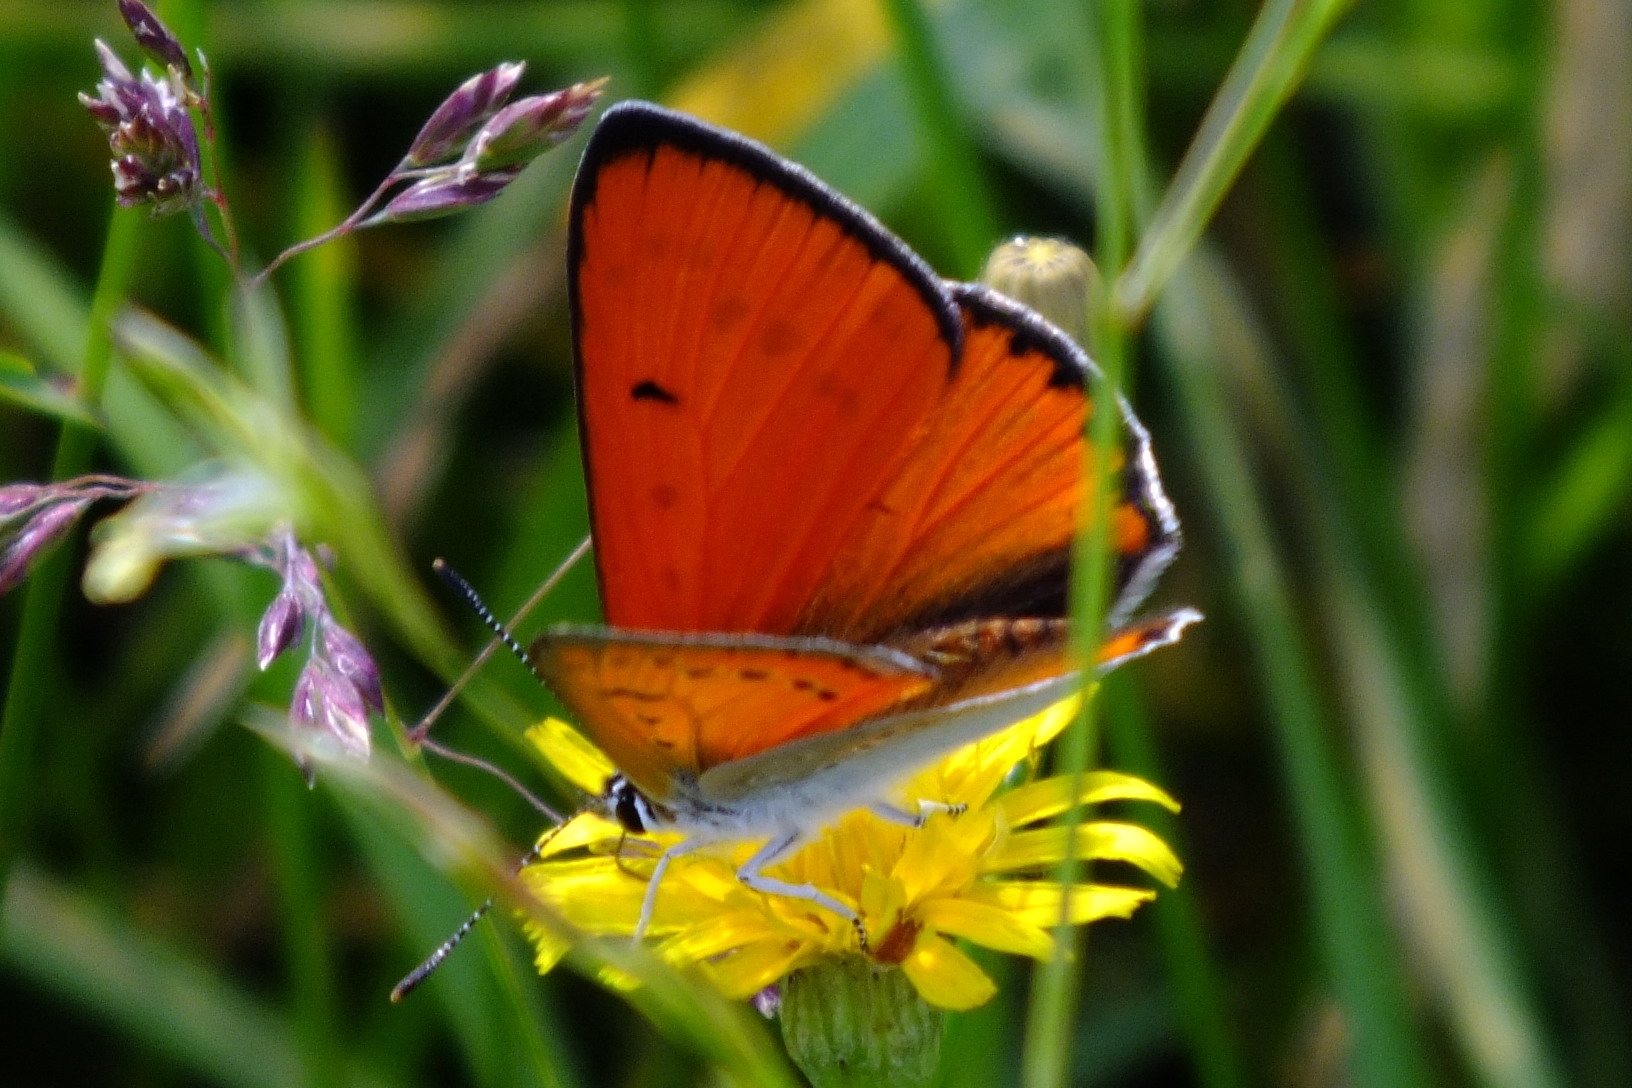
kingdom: Animalia
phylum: Arthropoda
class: Insecta
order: Lepidoptera
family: Lycaenidae
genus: Lycaena
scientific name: Lycaena dispar
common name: Large copper
